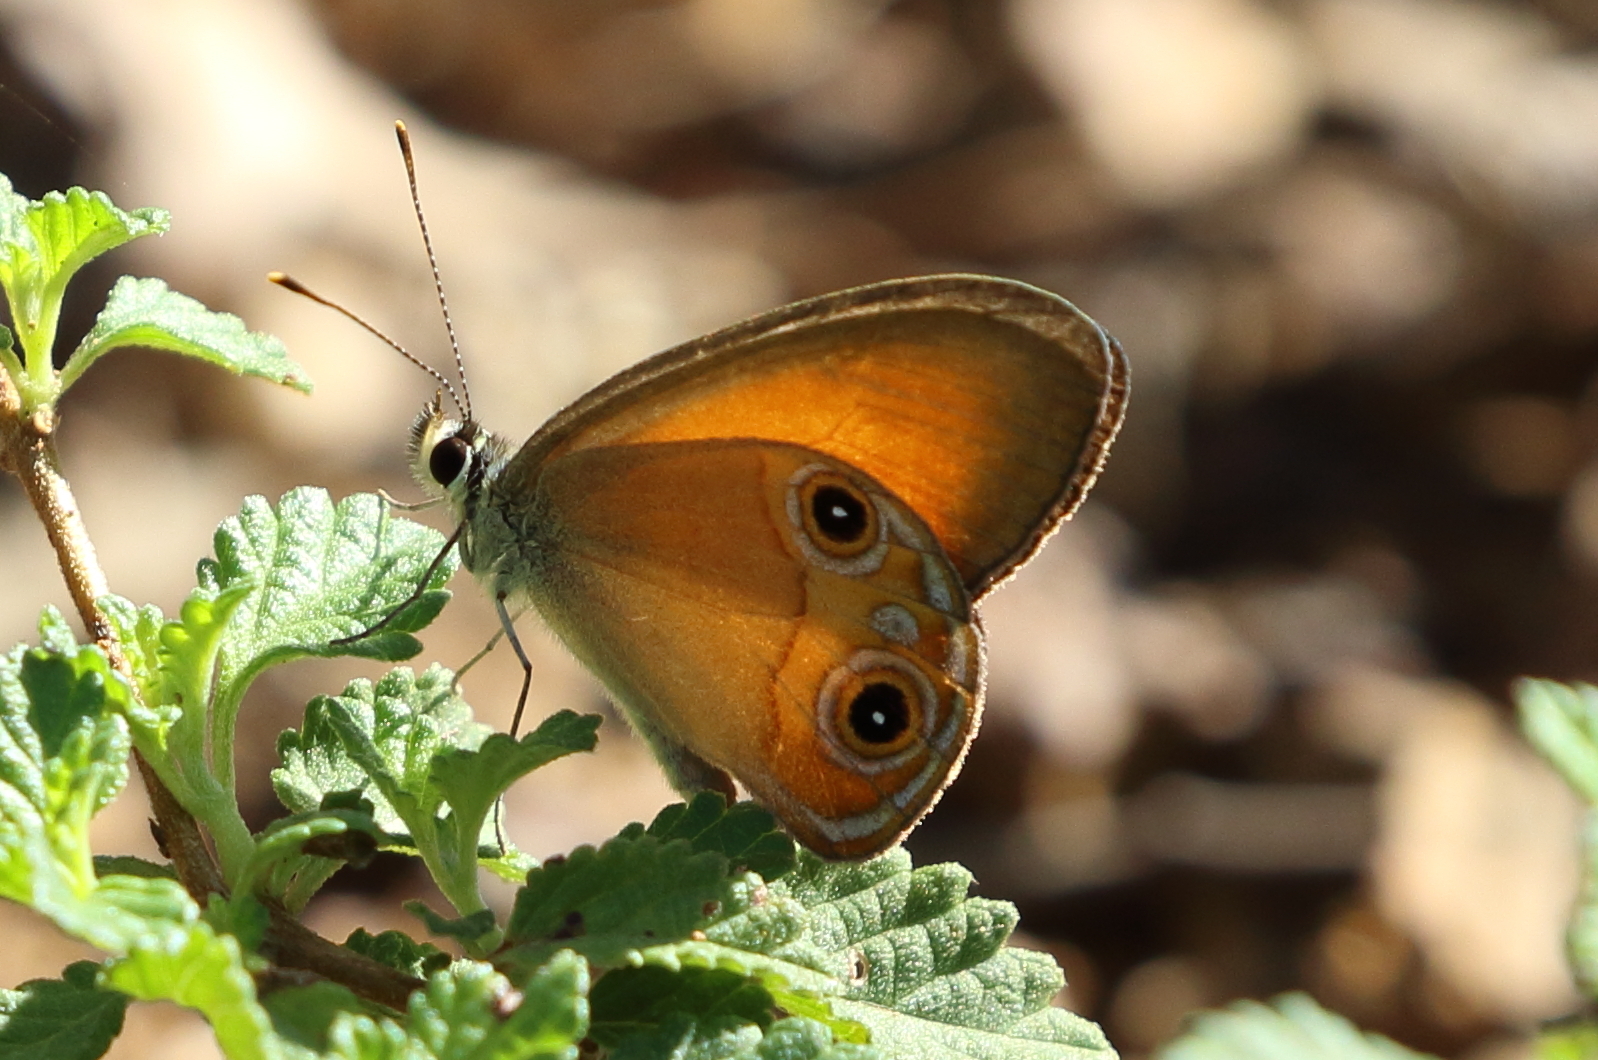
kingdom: Animalia
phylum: Arthropoda
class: Insecta
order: Lepidoptera
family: Nymphalidae
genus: Hypocysta
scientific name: Hypocysta adiante
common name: Orange ringlet
